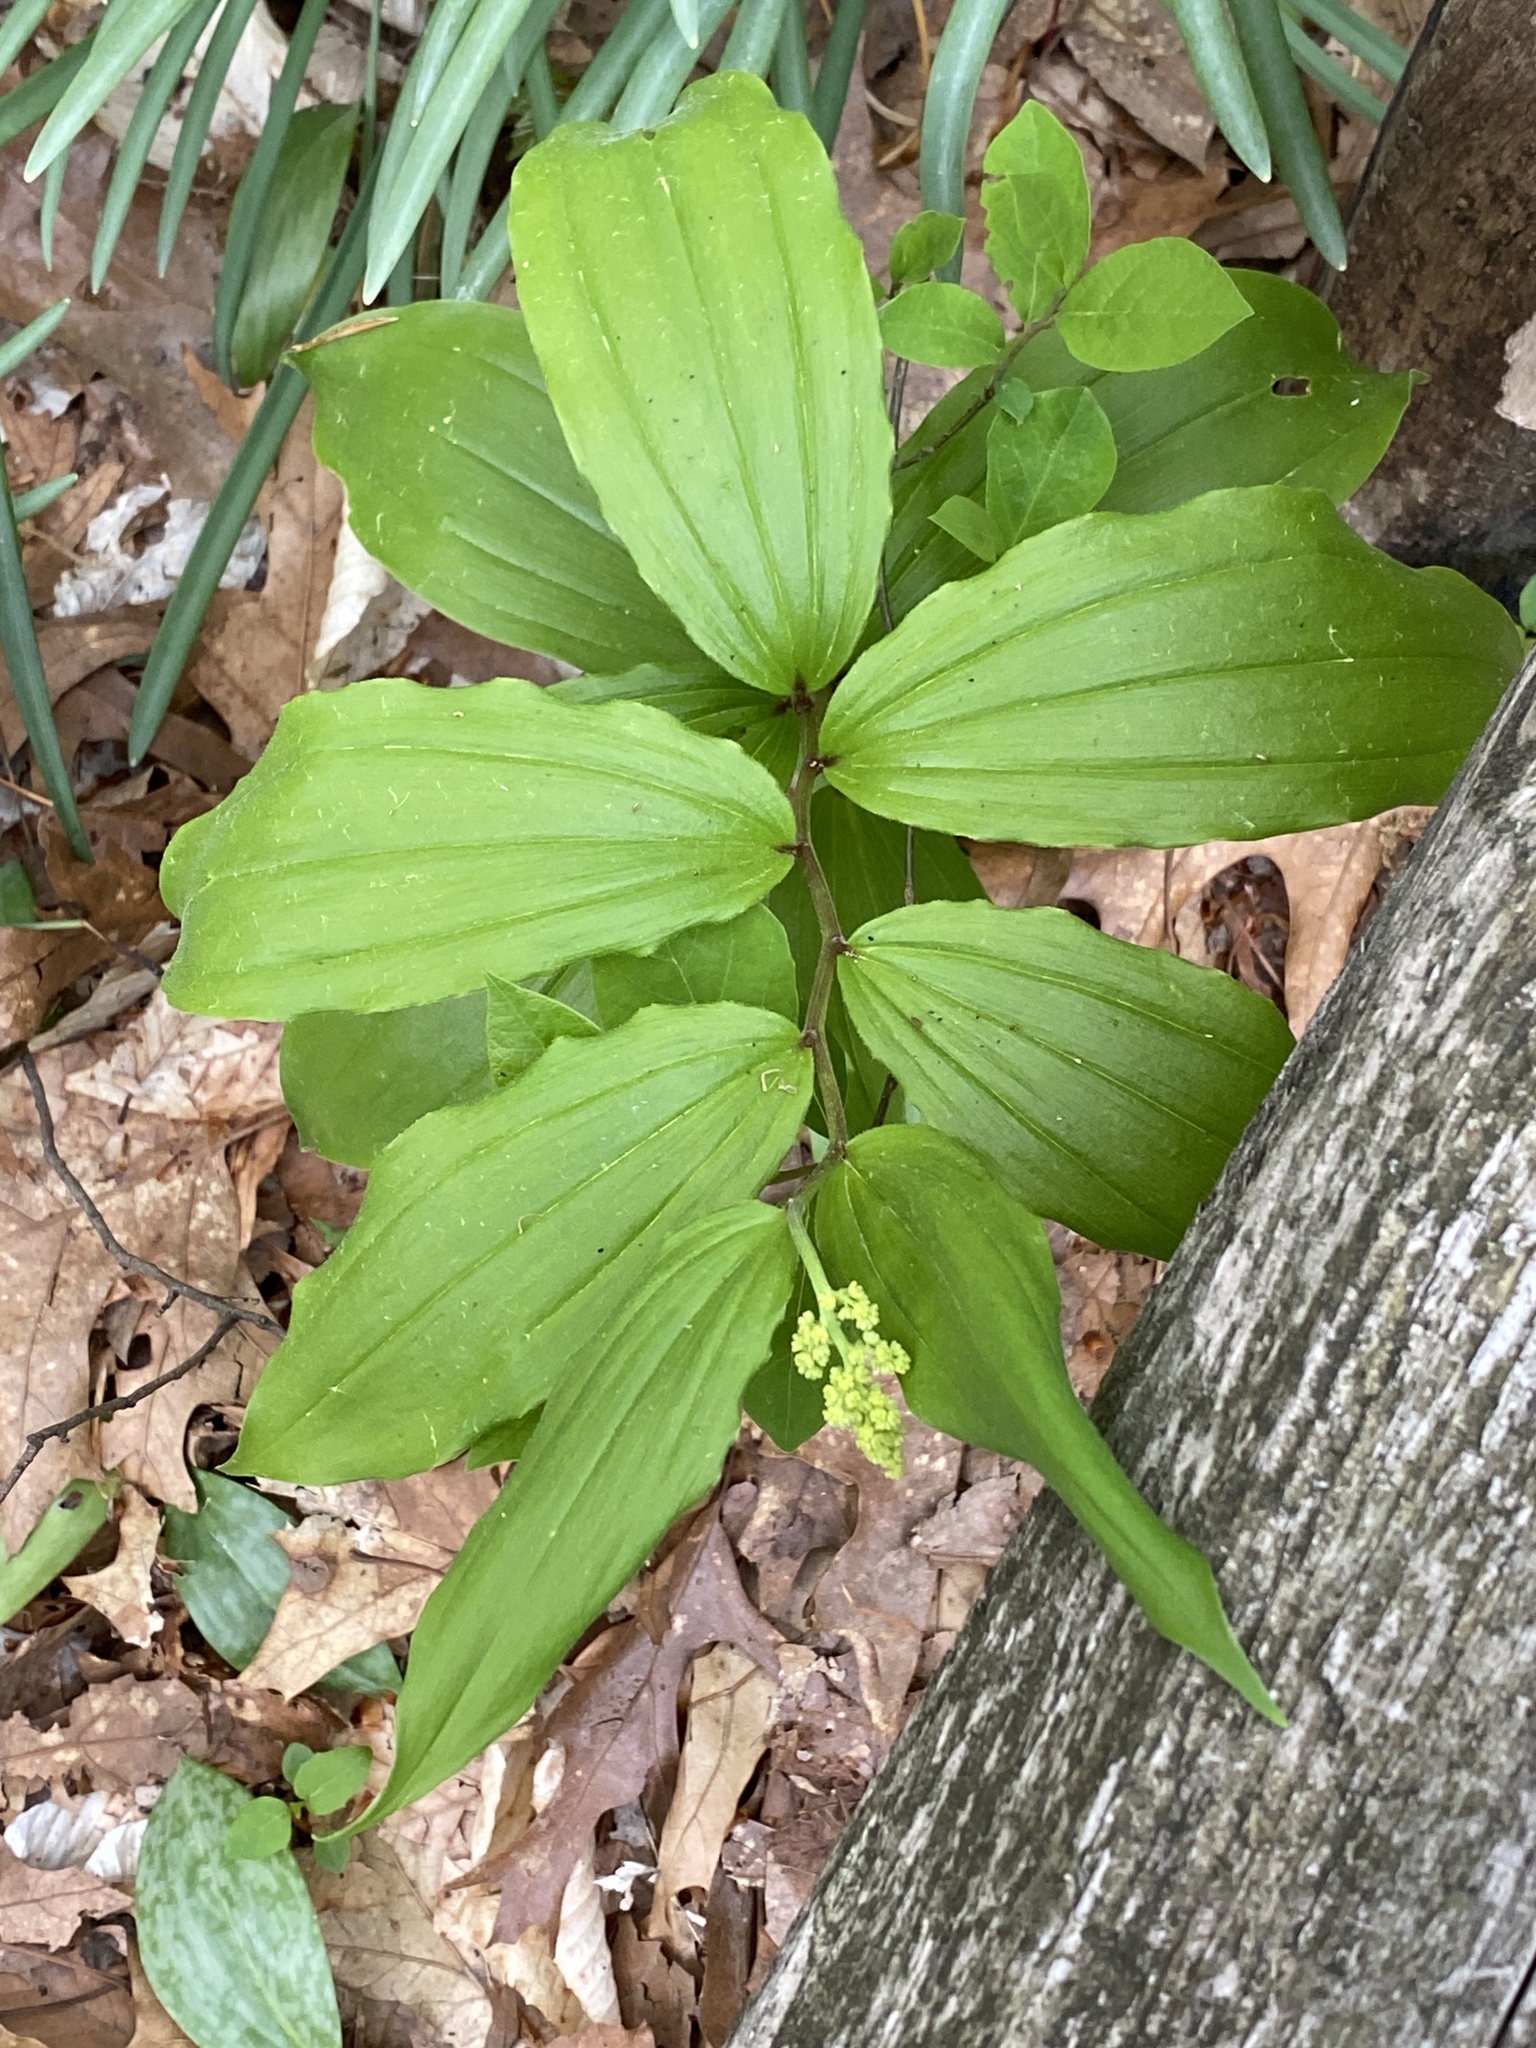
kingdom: Plantae
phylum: Tracheophyta
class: Liliopsida
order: Asparagales
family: Asparagaceae
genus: Maianthemum
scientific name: Maianthemum racemosum
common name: False spikenard
